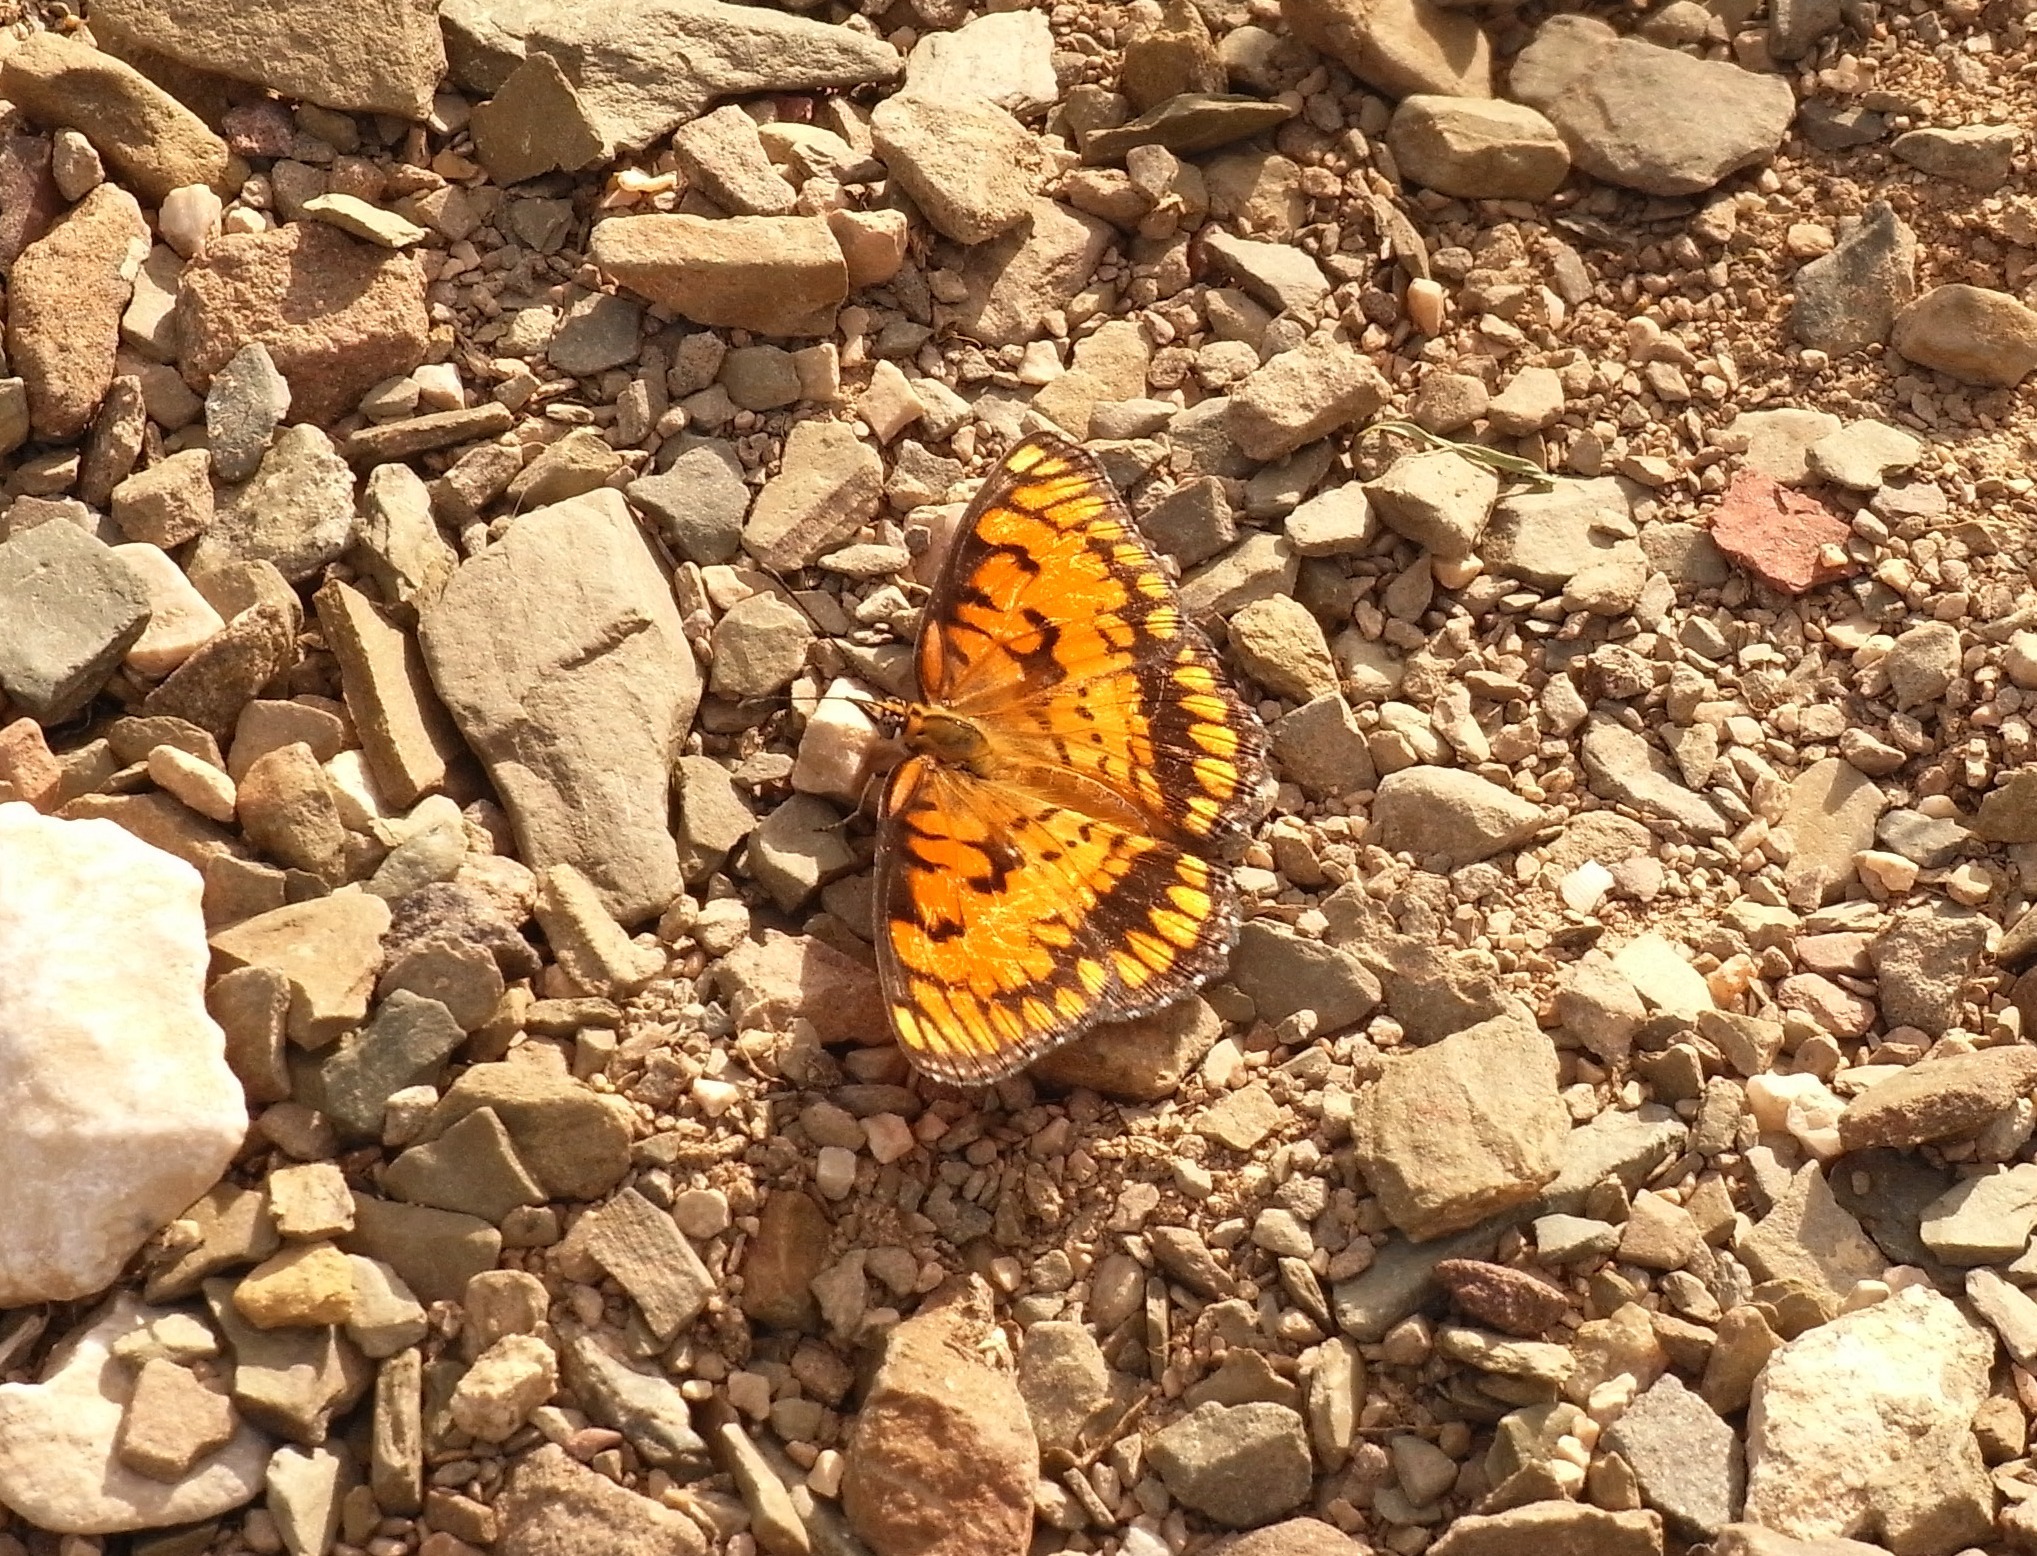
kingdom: Animalia
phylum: Arthropoda
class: Insecta
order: Lepidoptera
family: Nymphalidae
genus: Byblia
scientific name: Byblia ilithyia
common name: Spotted joker
